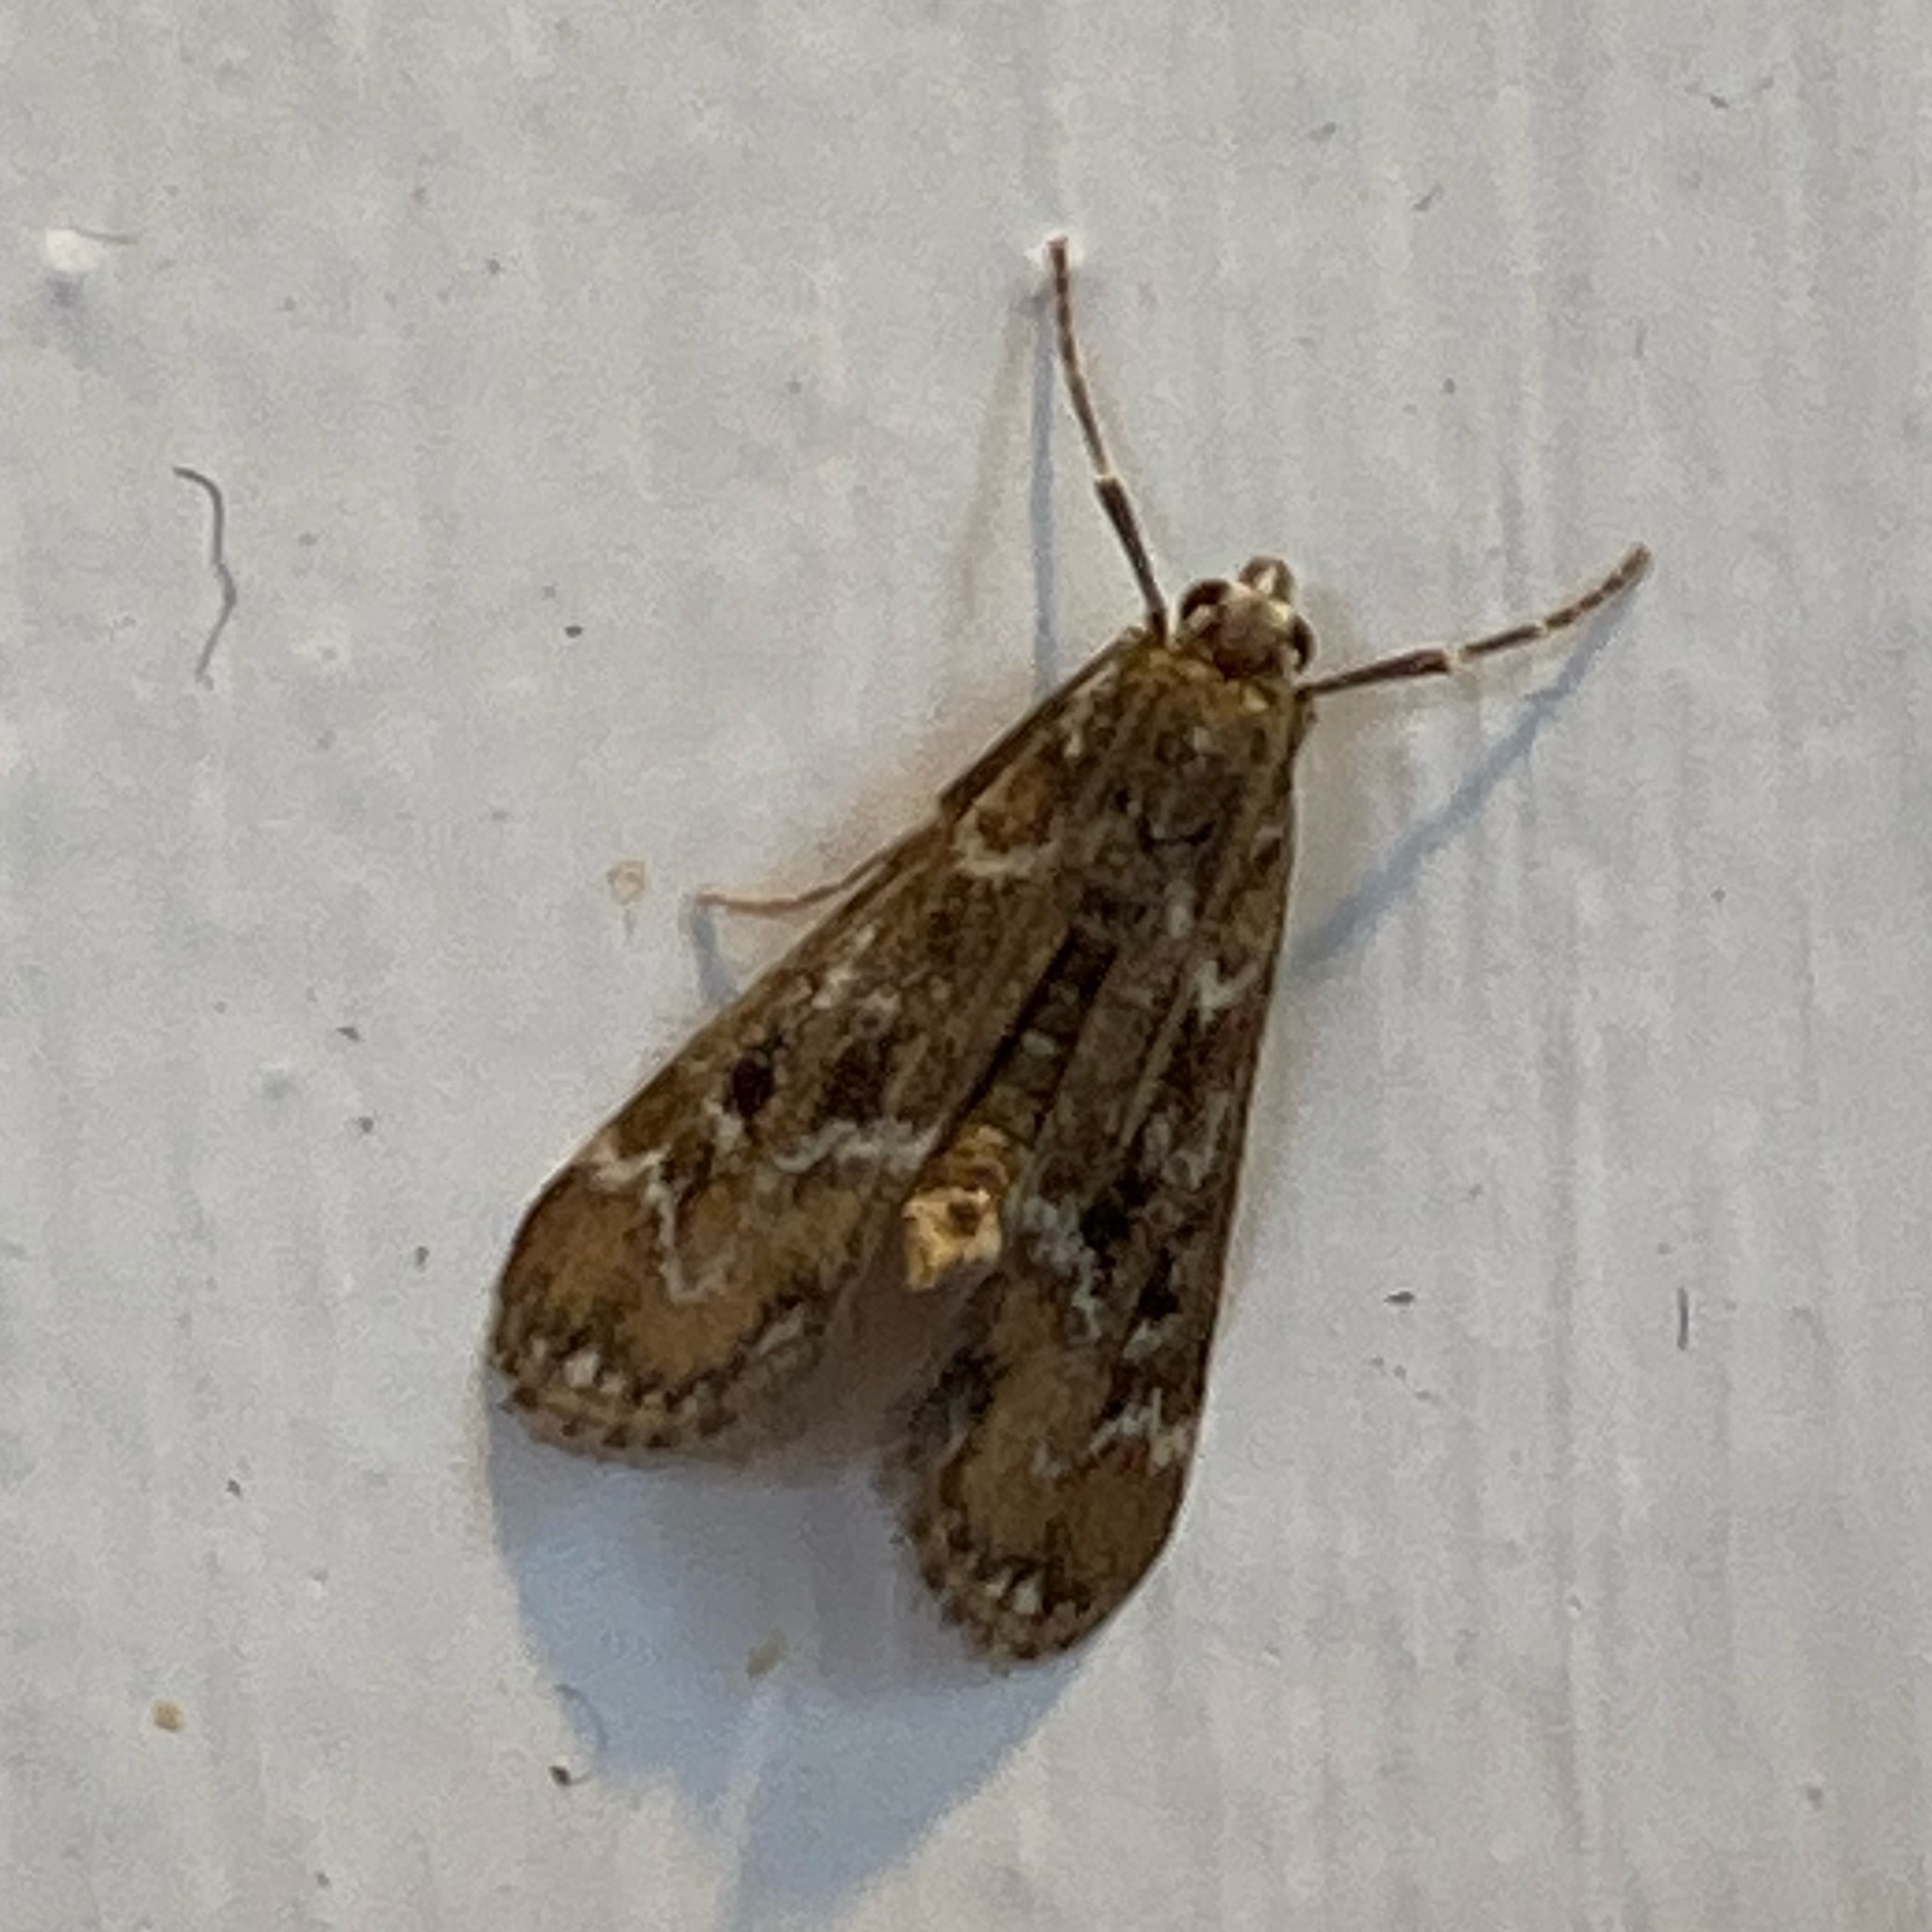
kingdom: Animalia
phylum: Arthropoda
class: Insecta
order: Lepidoptera
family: Crambidae
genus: Hygraula
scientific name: Hygraula nitens
